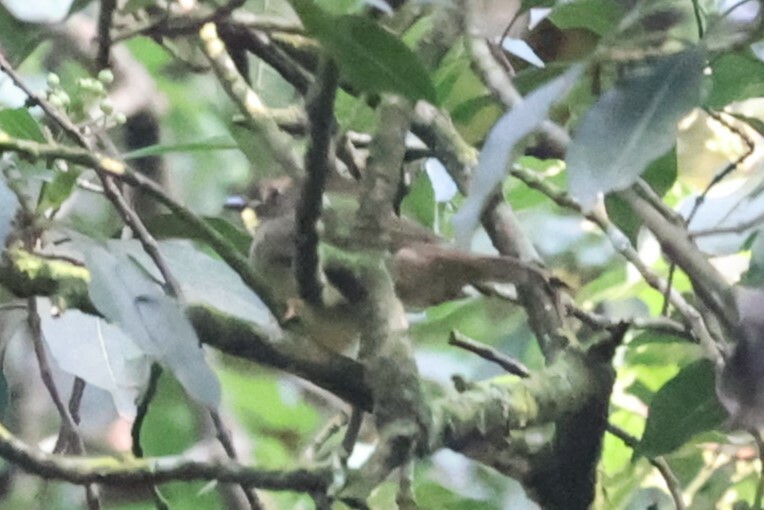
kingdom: Animalia
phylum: Chordata
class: Aves
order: Passeriformes
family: Pycnonotidae
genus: Eurillas
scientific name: Eurillas latirostris
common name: Yellow-whiskered greenbul
